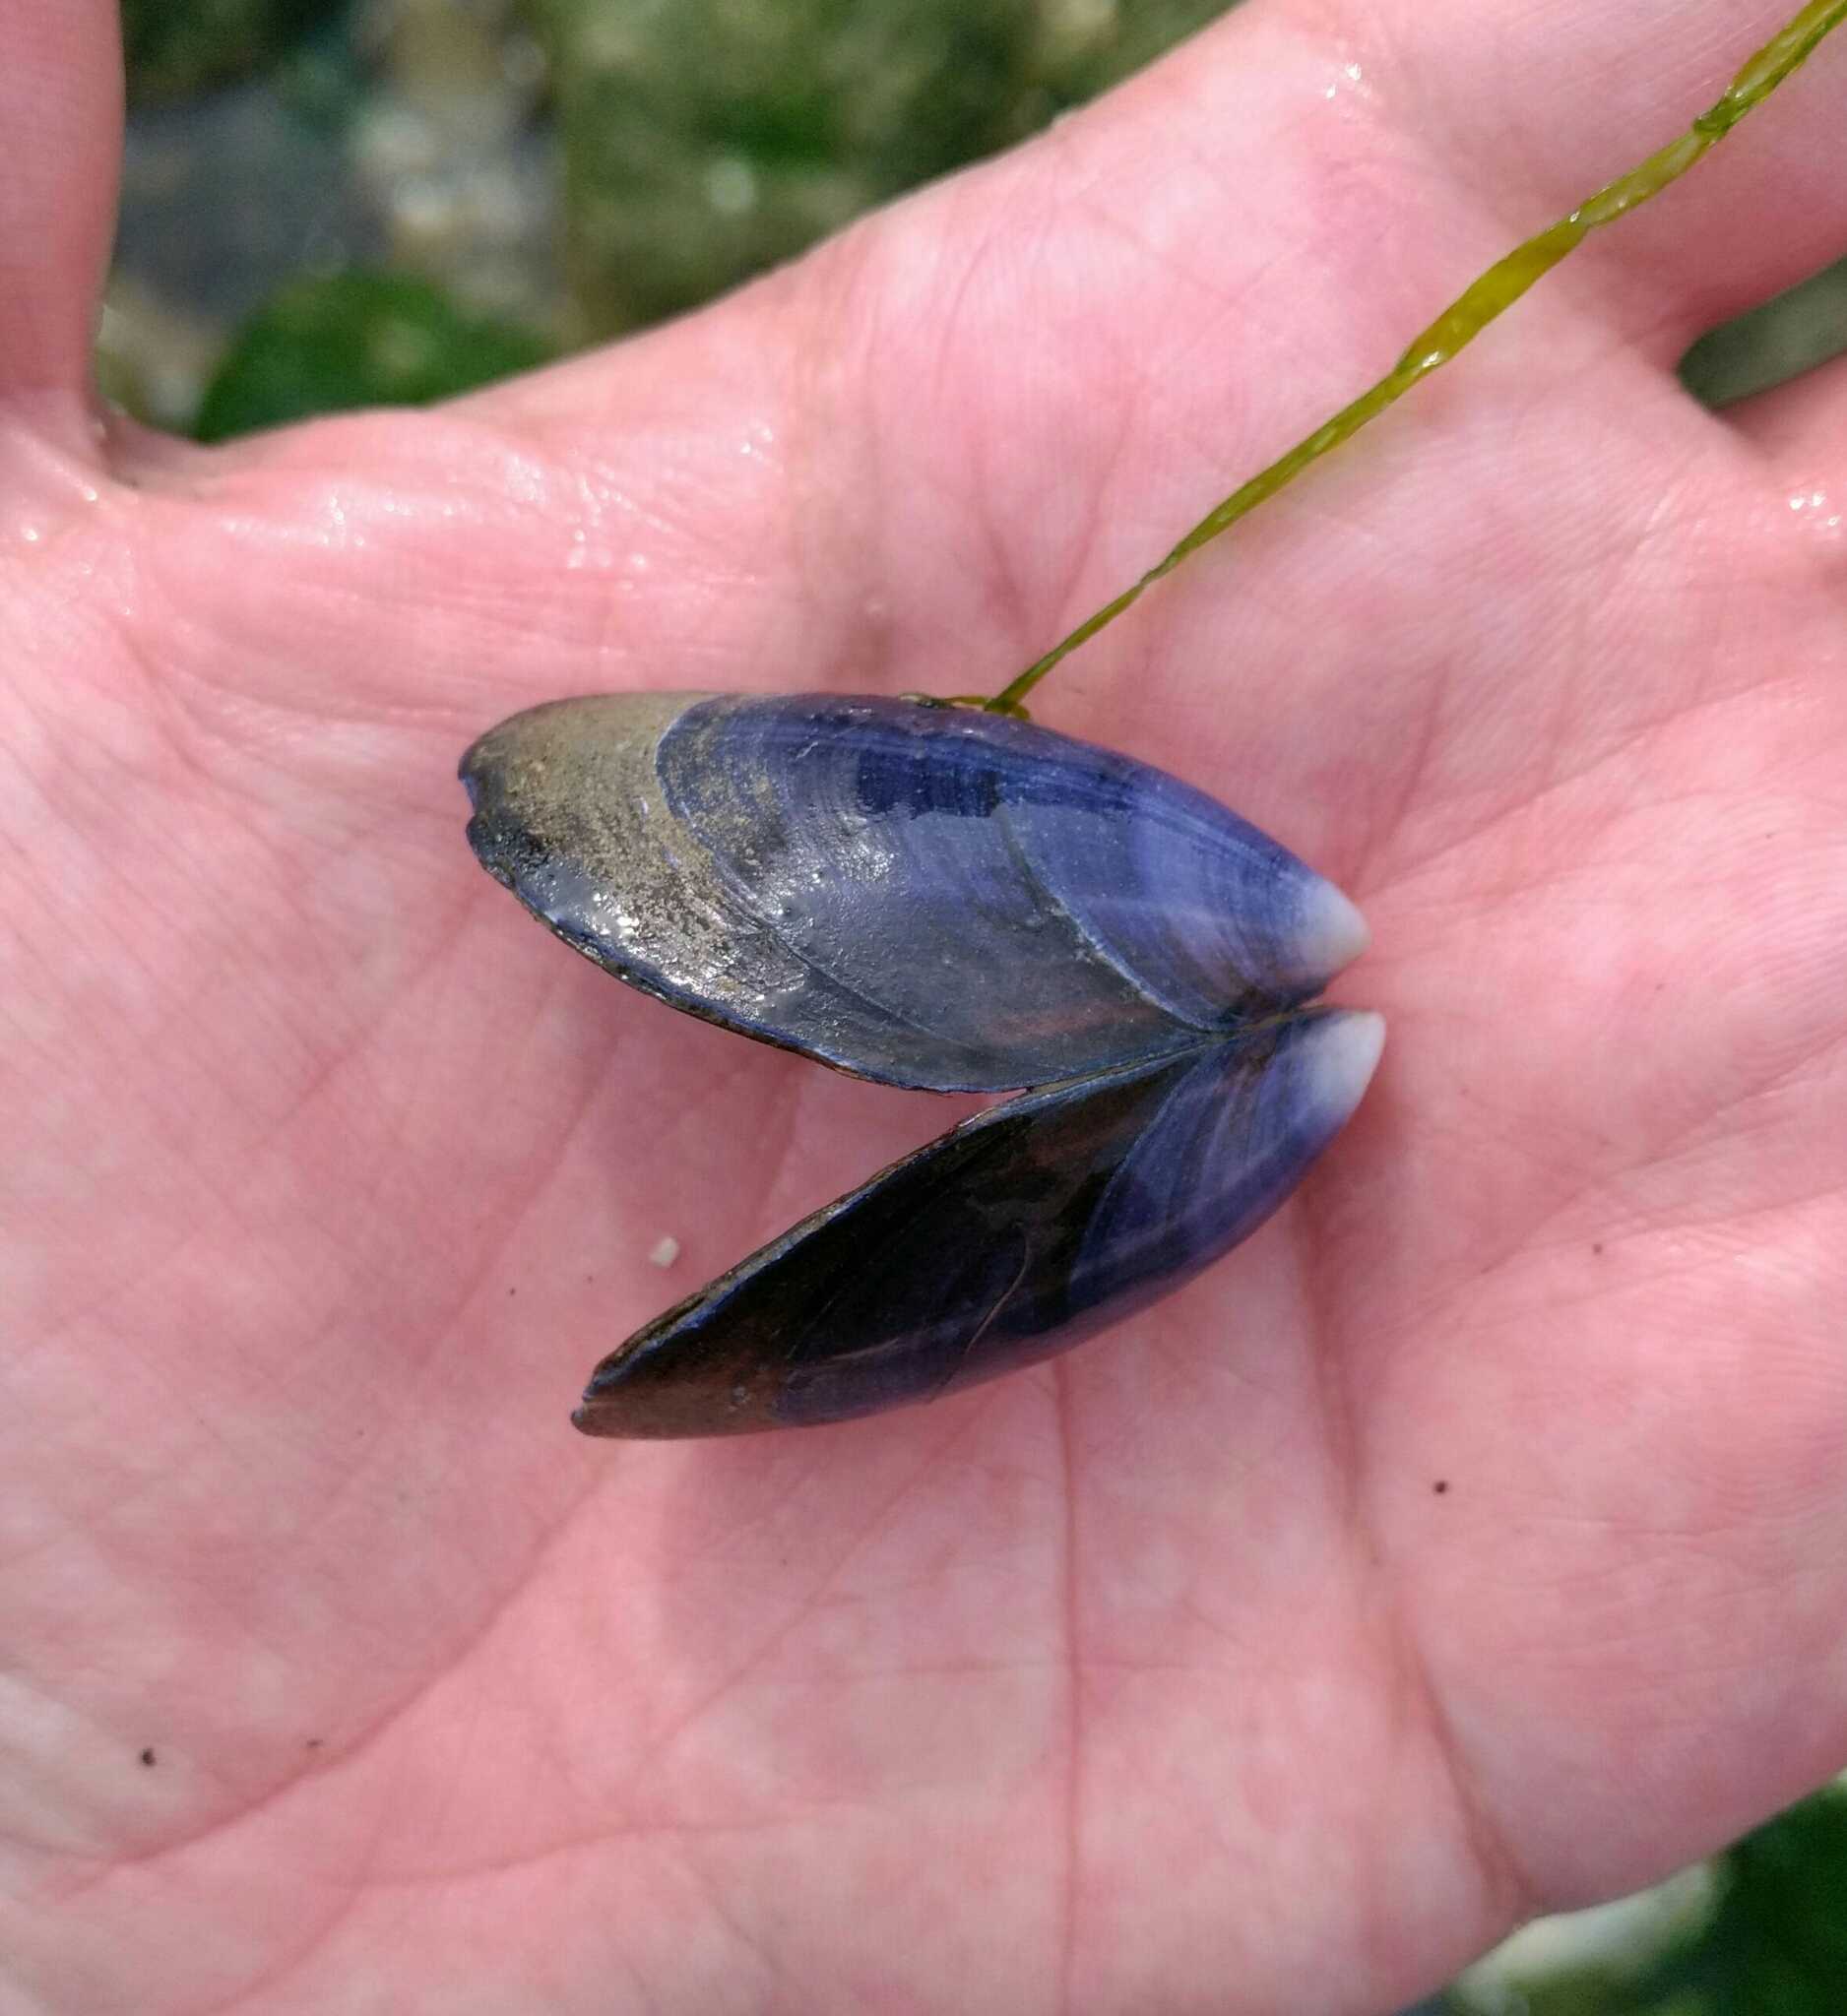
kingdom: Animalia
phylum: Mollusca
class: Bivalvia
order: Mytilida
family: Mytilidae
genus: Mytilus
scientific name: Mytilus edulis
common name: Blue mussel
